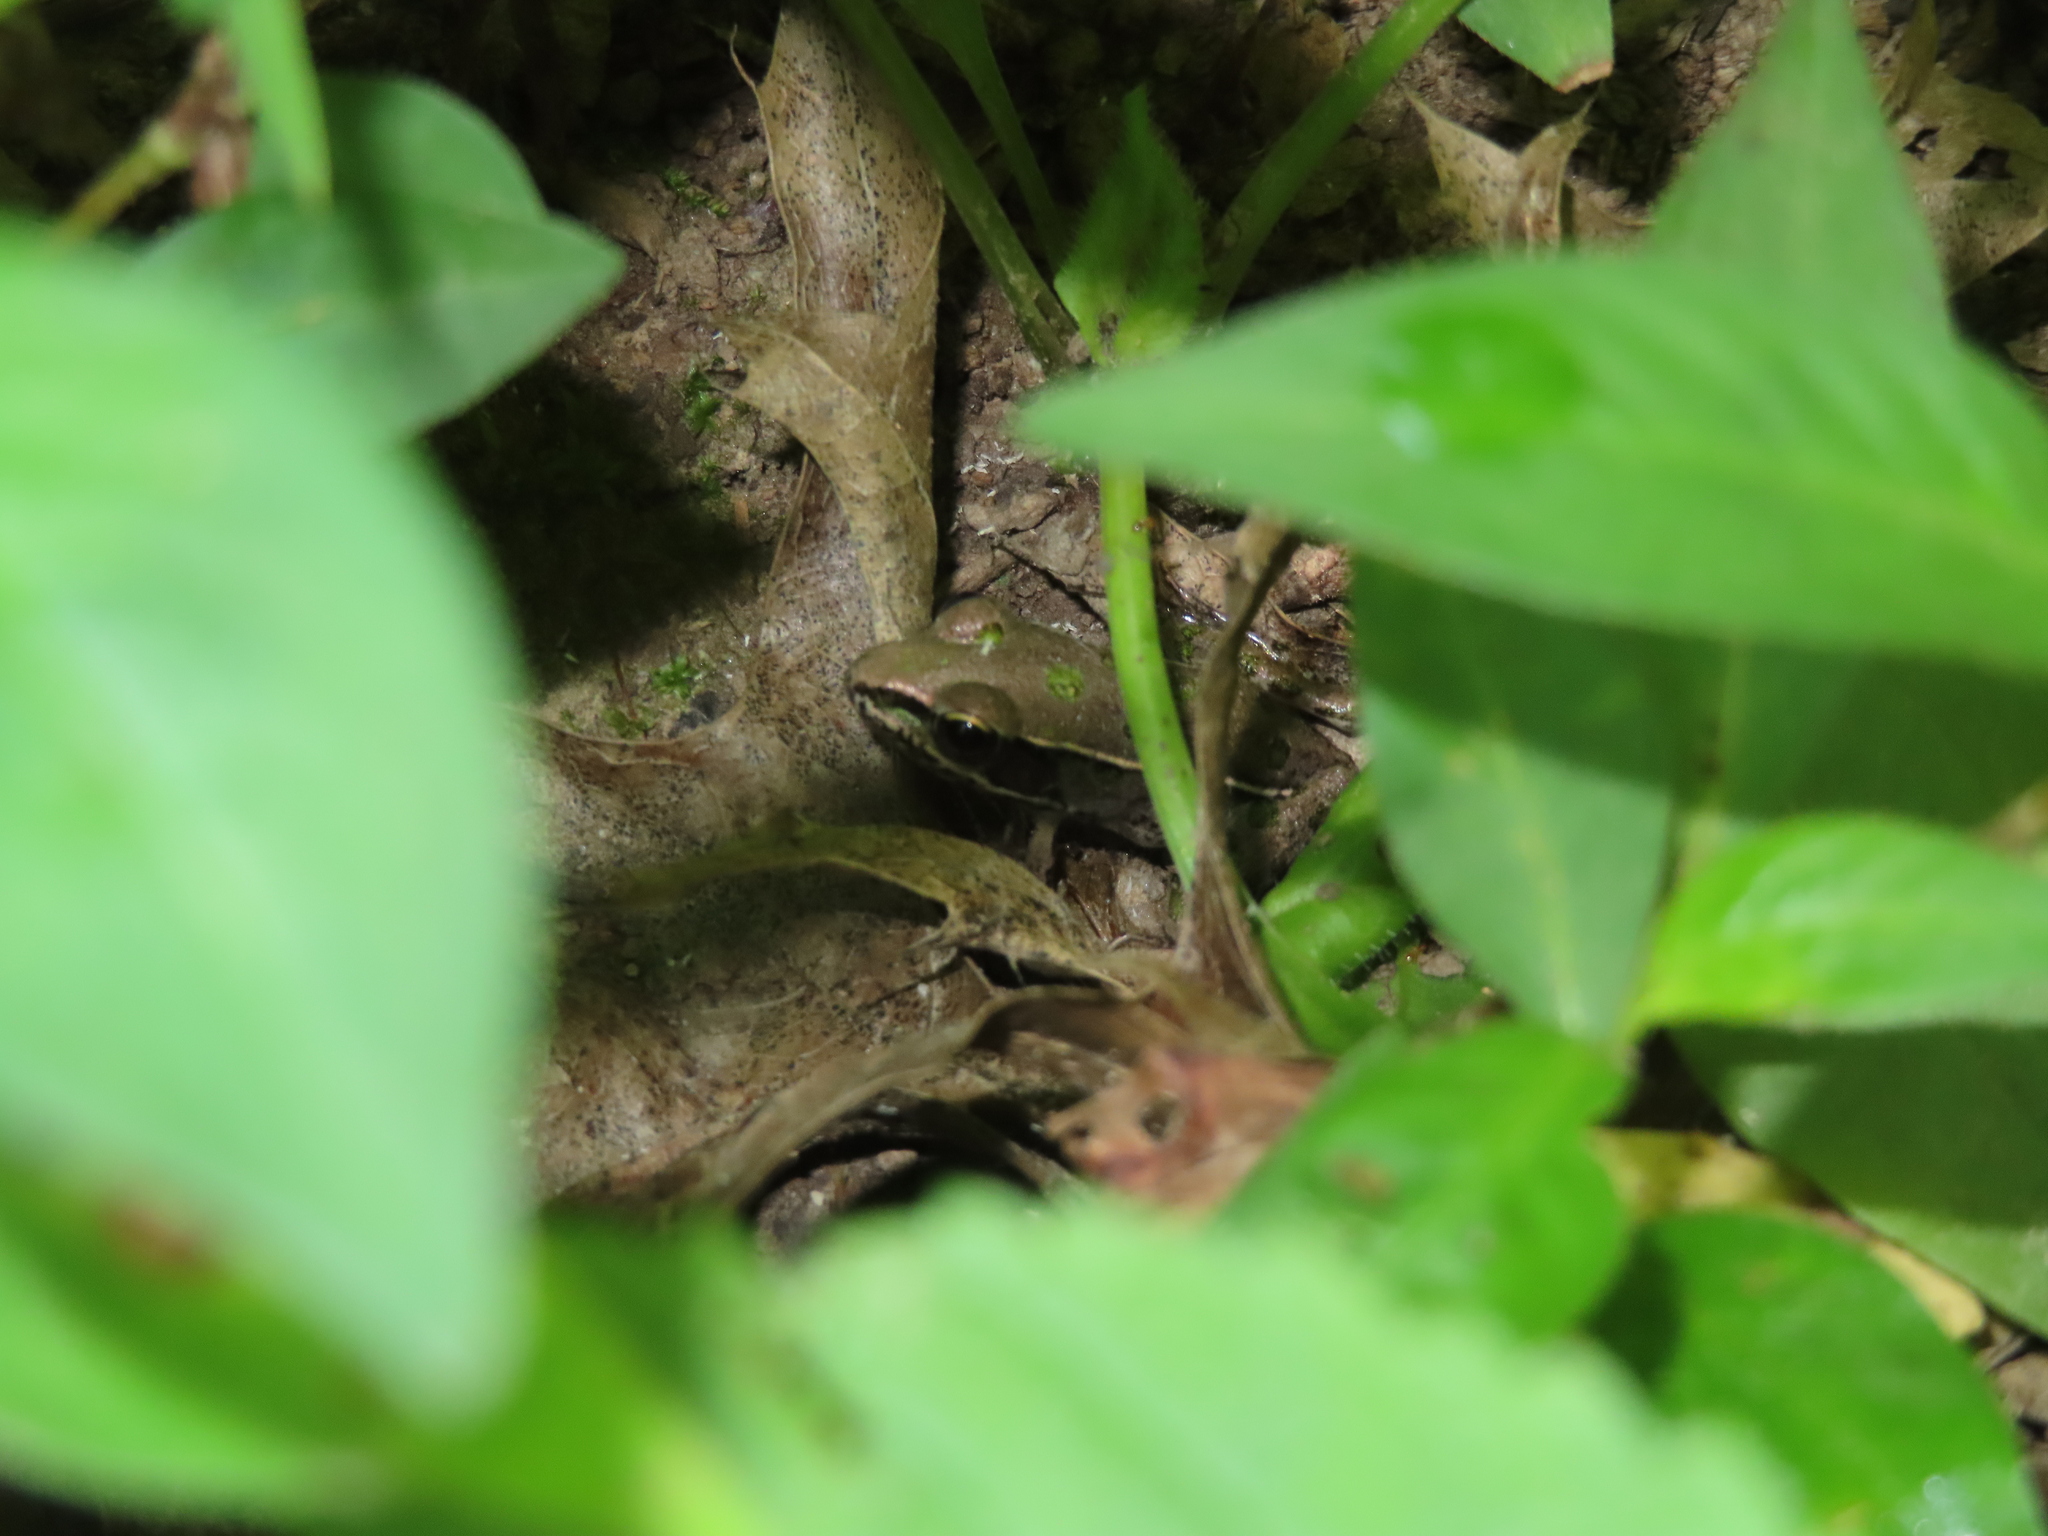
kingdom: Animalia
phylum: Chordata
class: Amphibia
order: Anura
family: Ranidae
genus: Lithobates
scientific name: Lithobates sphenocephalus
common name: Southern leopard frog
